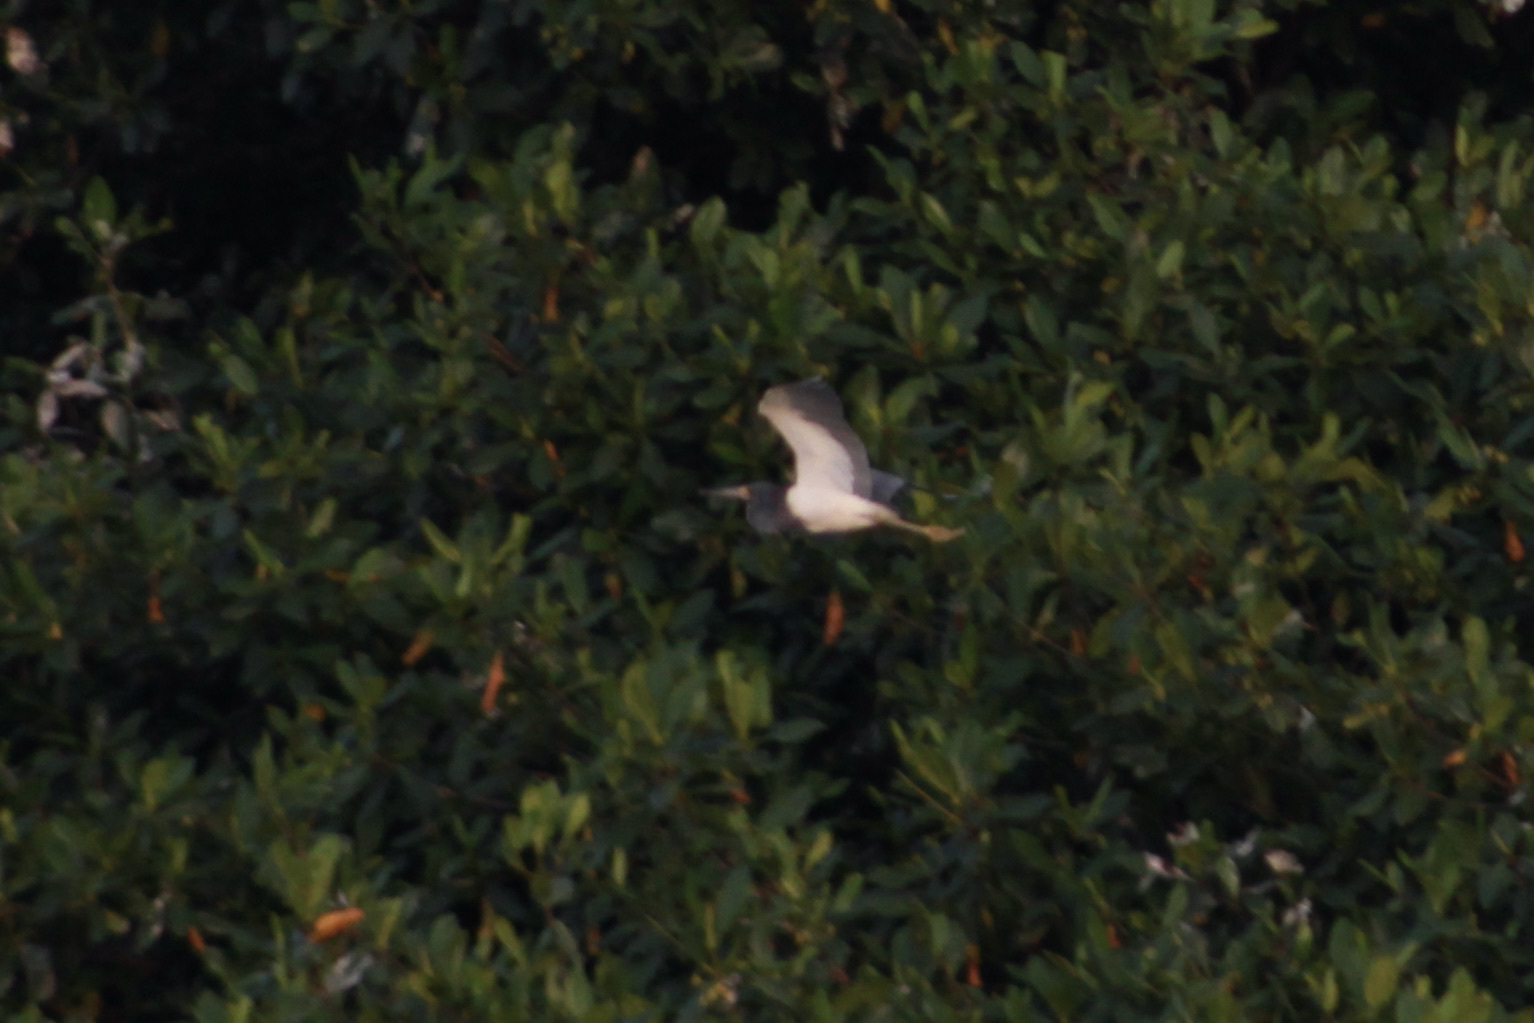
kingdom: Animalia
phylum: Chordata
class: Aves
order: Pelecaniformes
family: Ardeidae
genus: Egretta
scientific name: Egretta tricolor
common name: Tricolored heron
